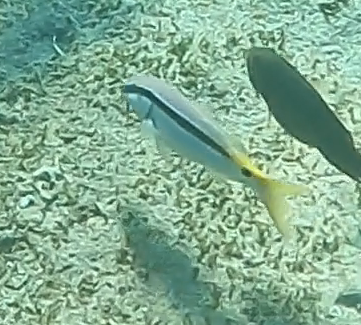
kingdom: Animalia
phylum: Chordata
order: Perciformes
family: Mullidae
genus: Parupeneus
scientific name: Parupeneus forsskali
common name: Red sea goatfish
